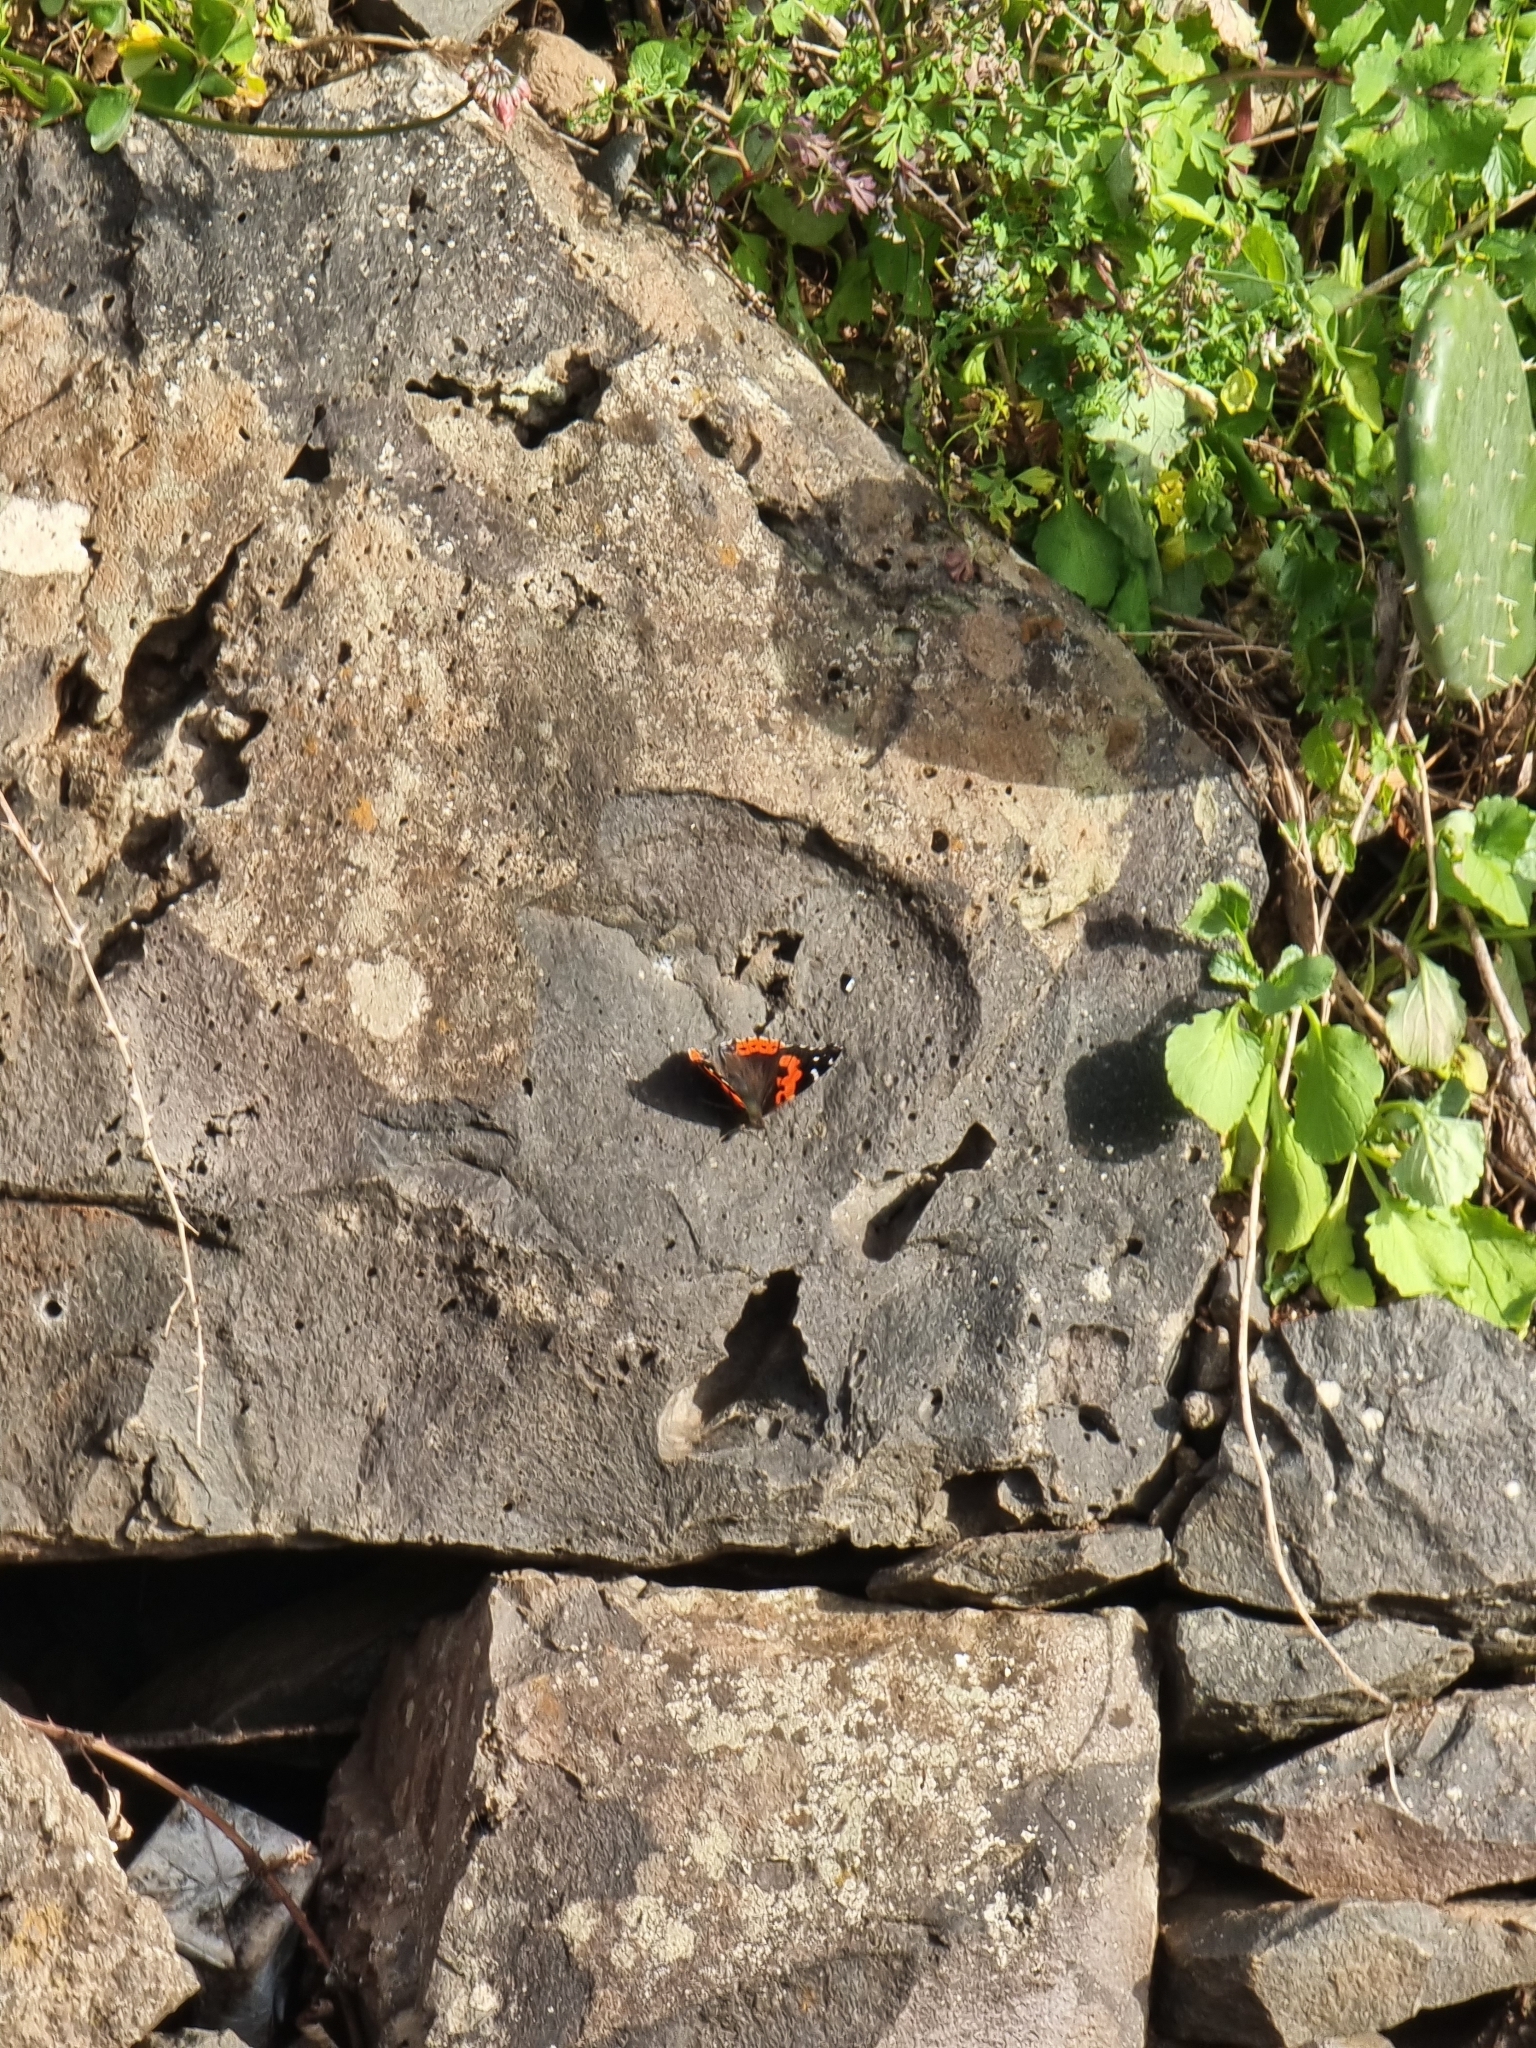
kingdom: Animalia
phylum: Arthropoda
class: Insecta
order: Lepidoptera
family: Nymphalidae
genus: Vanessa
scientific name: Vanessa vulcania
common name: Canary red admiral
